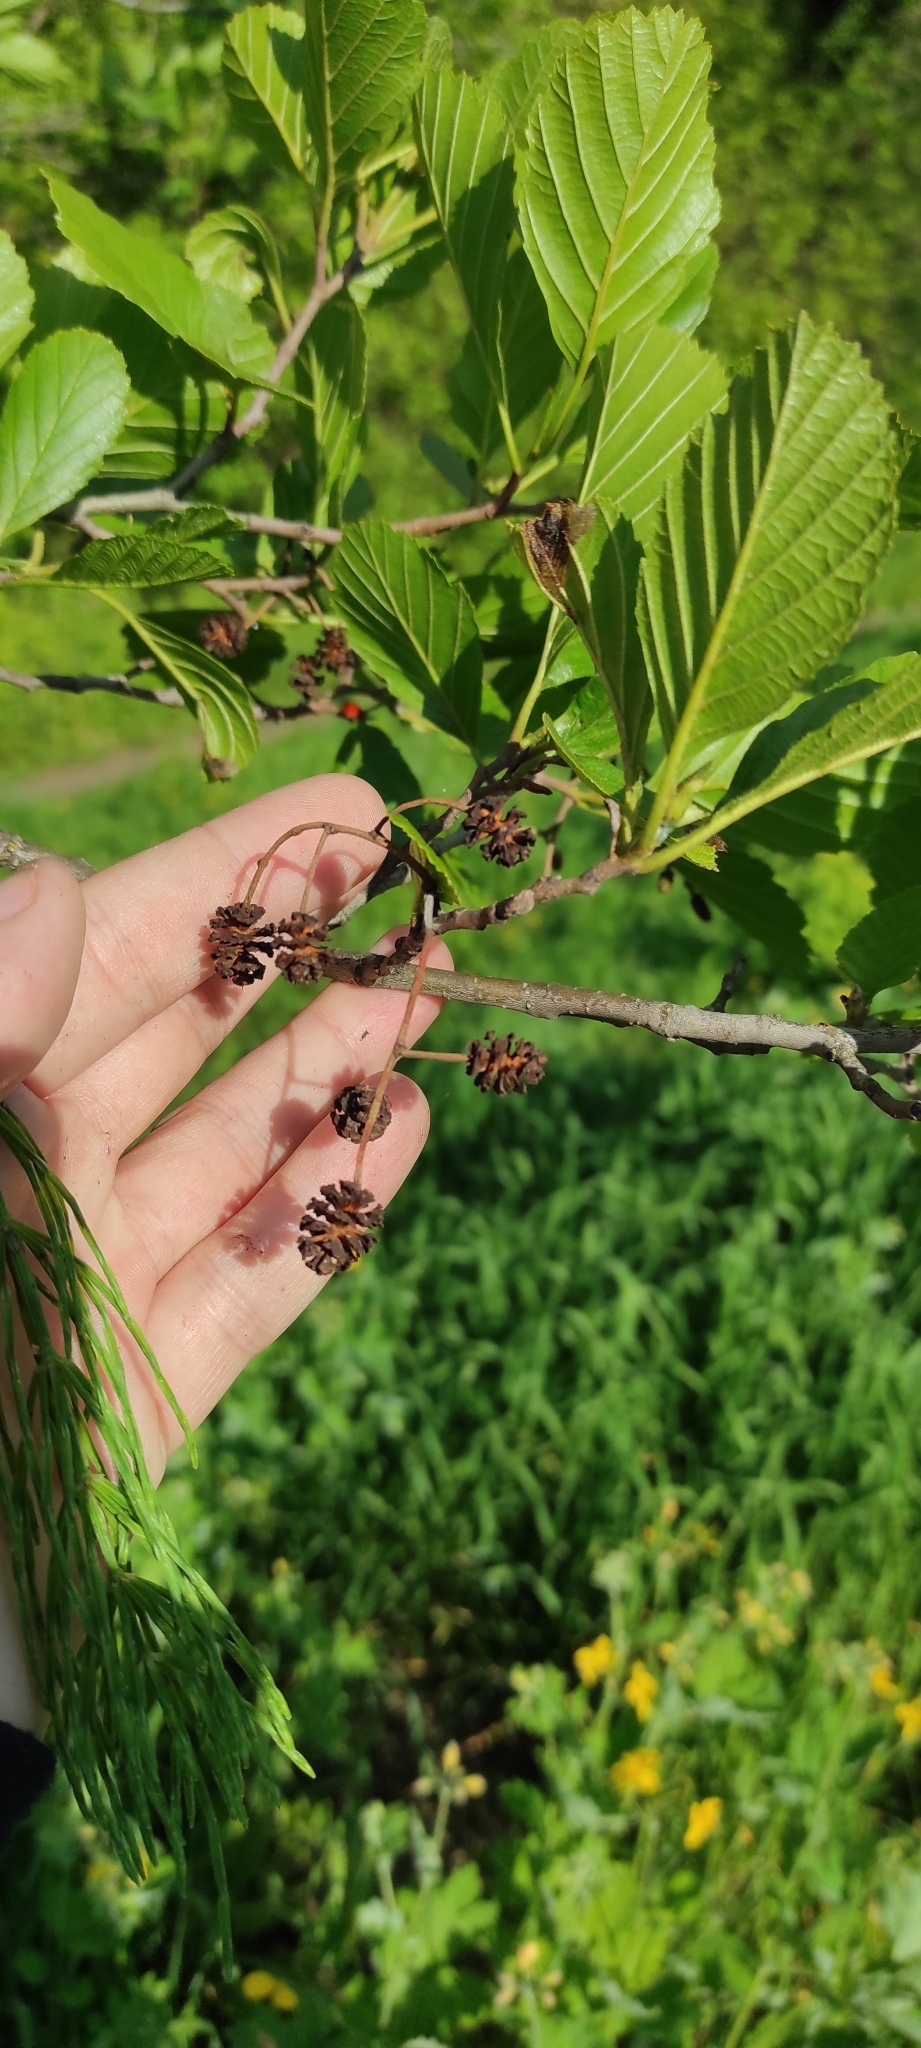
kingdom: Plantae
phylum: Tracheophyta
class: Magnoliopsida
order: Fagales
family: Betulaceae
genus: Alnus
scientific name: Alnus glutinosa
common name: Black alder
